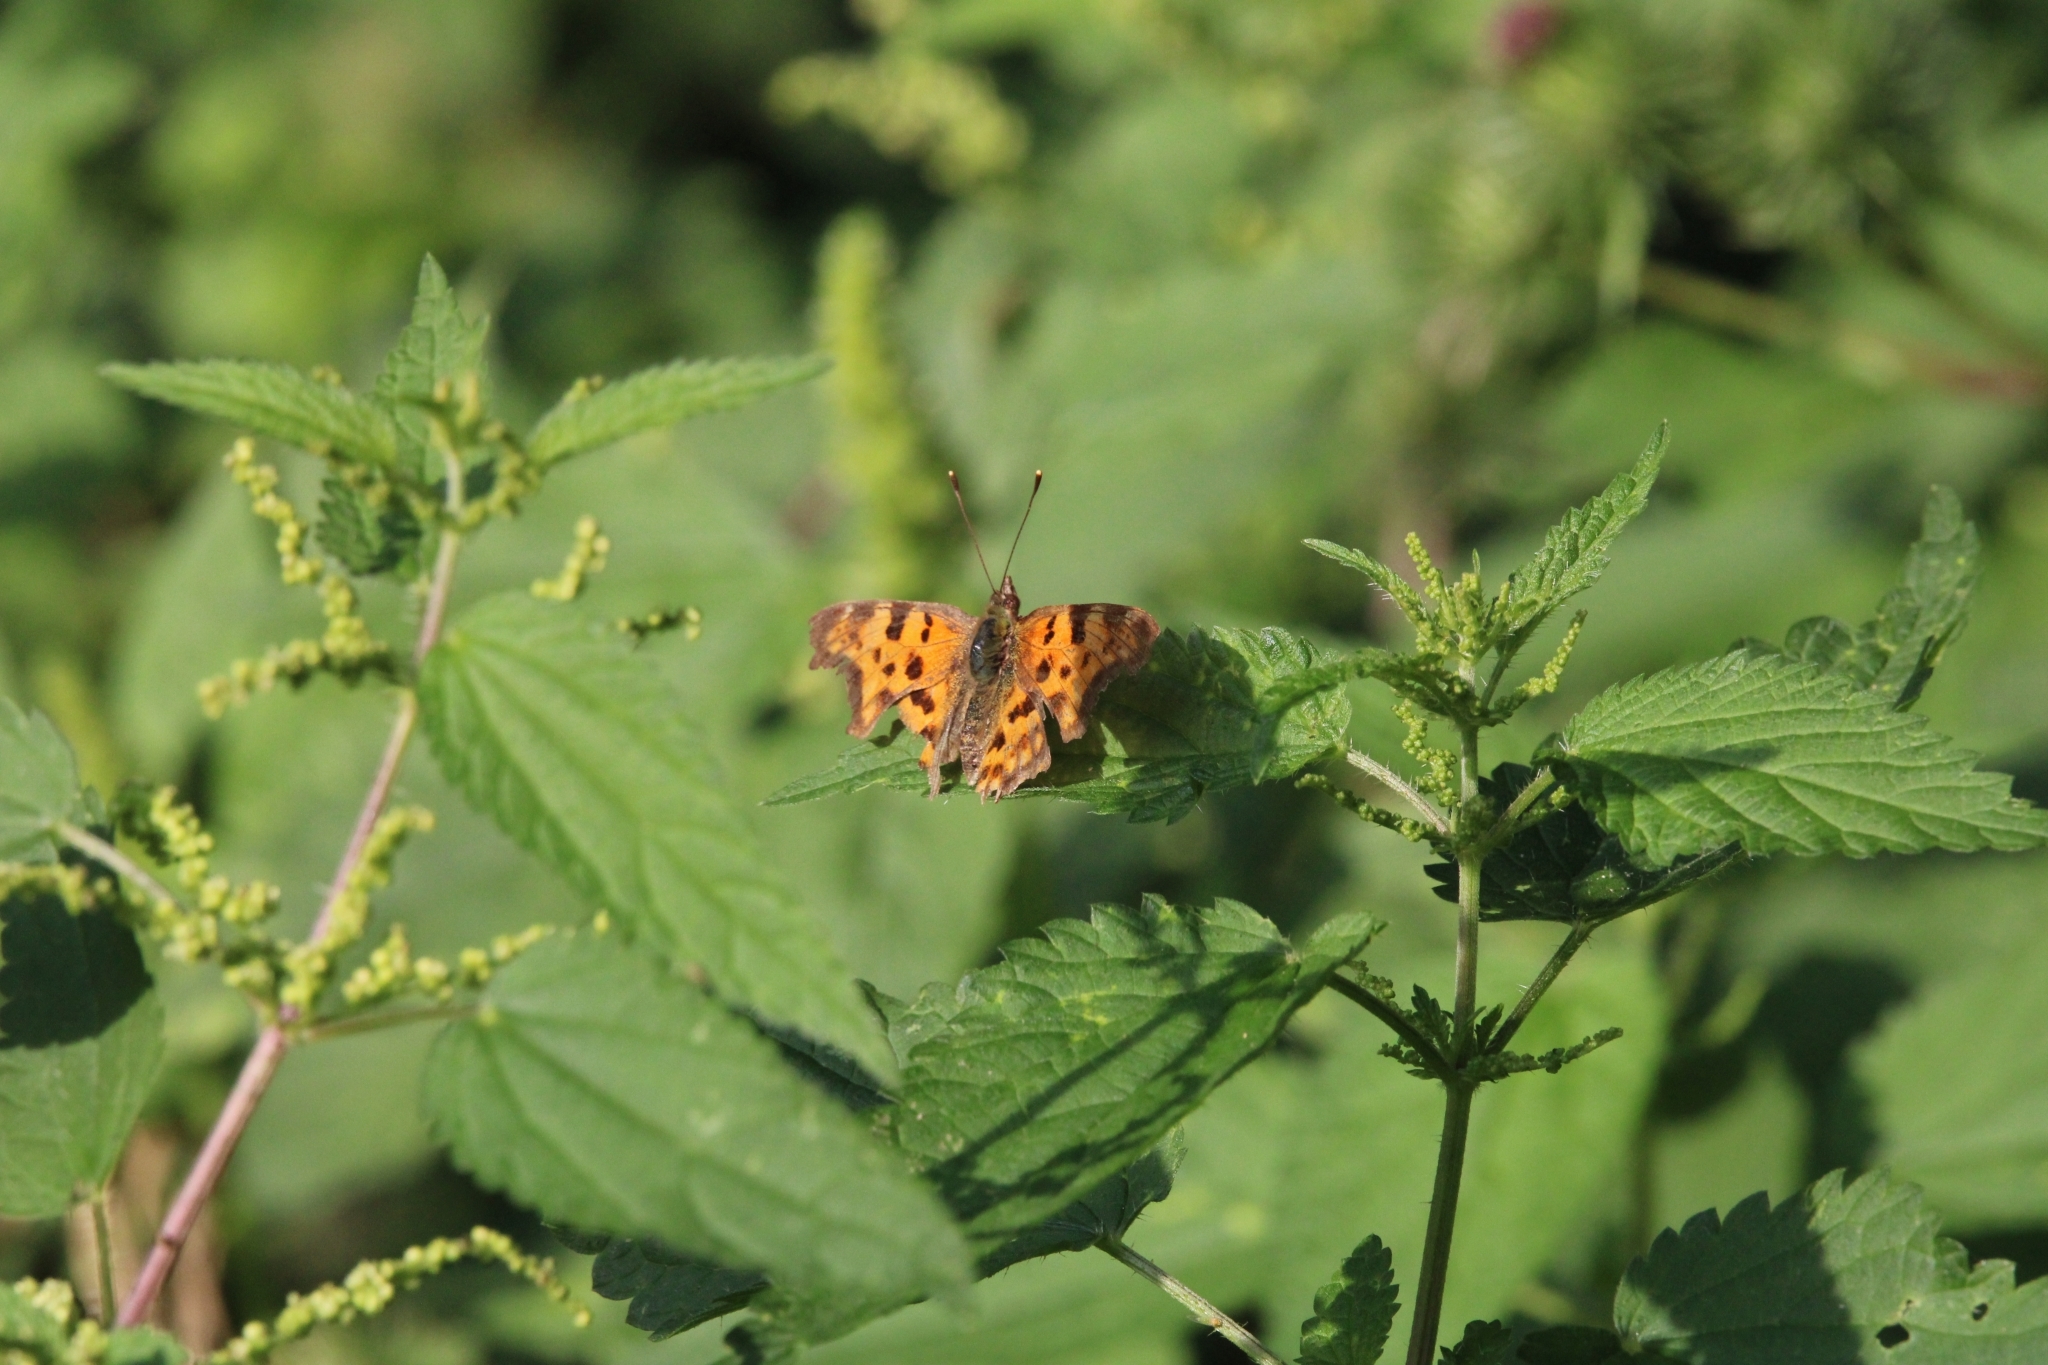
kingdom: Animalia
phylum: Arthropoda
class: Insecta
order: Lepidoptera
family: Nymphalidae
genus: Polygonia
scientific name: Polygonia c-album
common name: Comma
